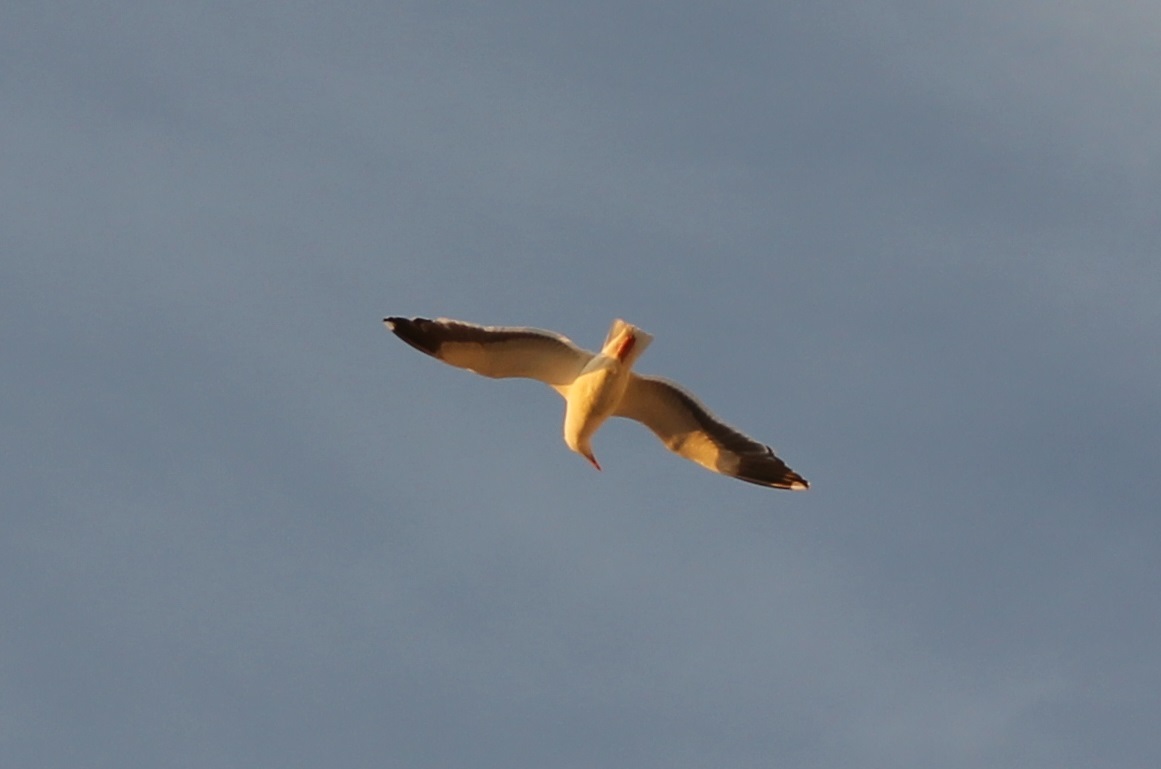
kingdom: Animalia
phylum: Chordata
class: Aves
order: Charadriiformes
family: Laridae
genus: Larus
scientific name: Larus occidentalis
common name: Western gull
